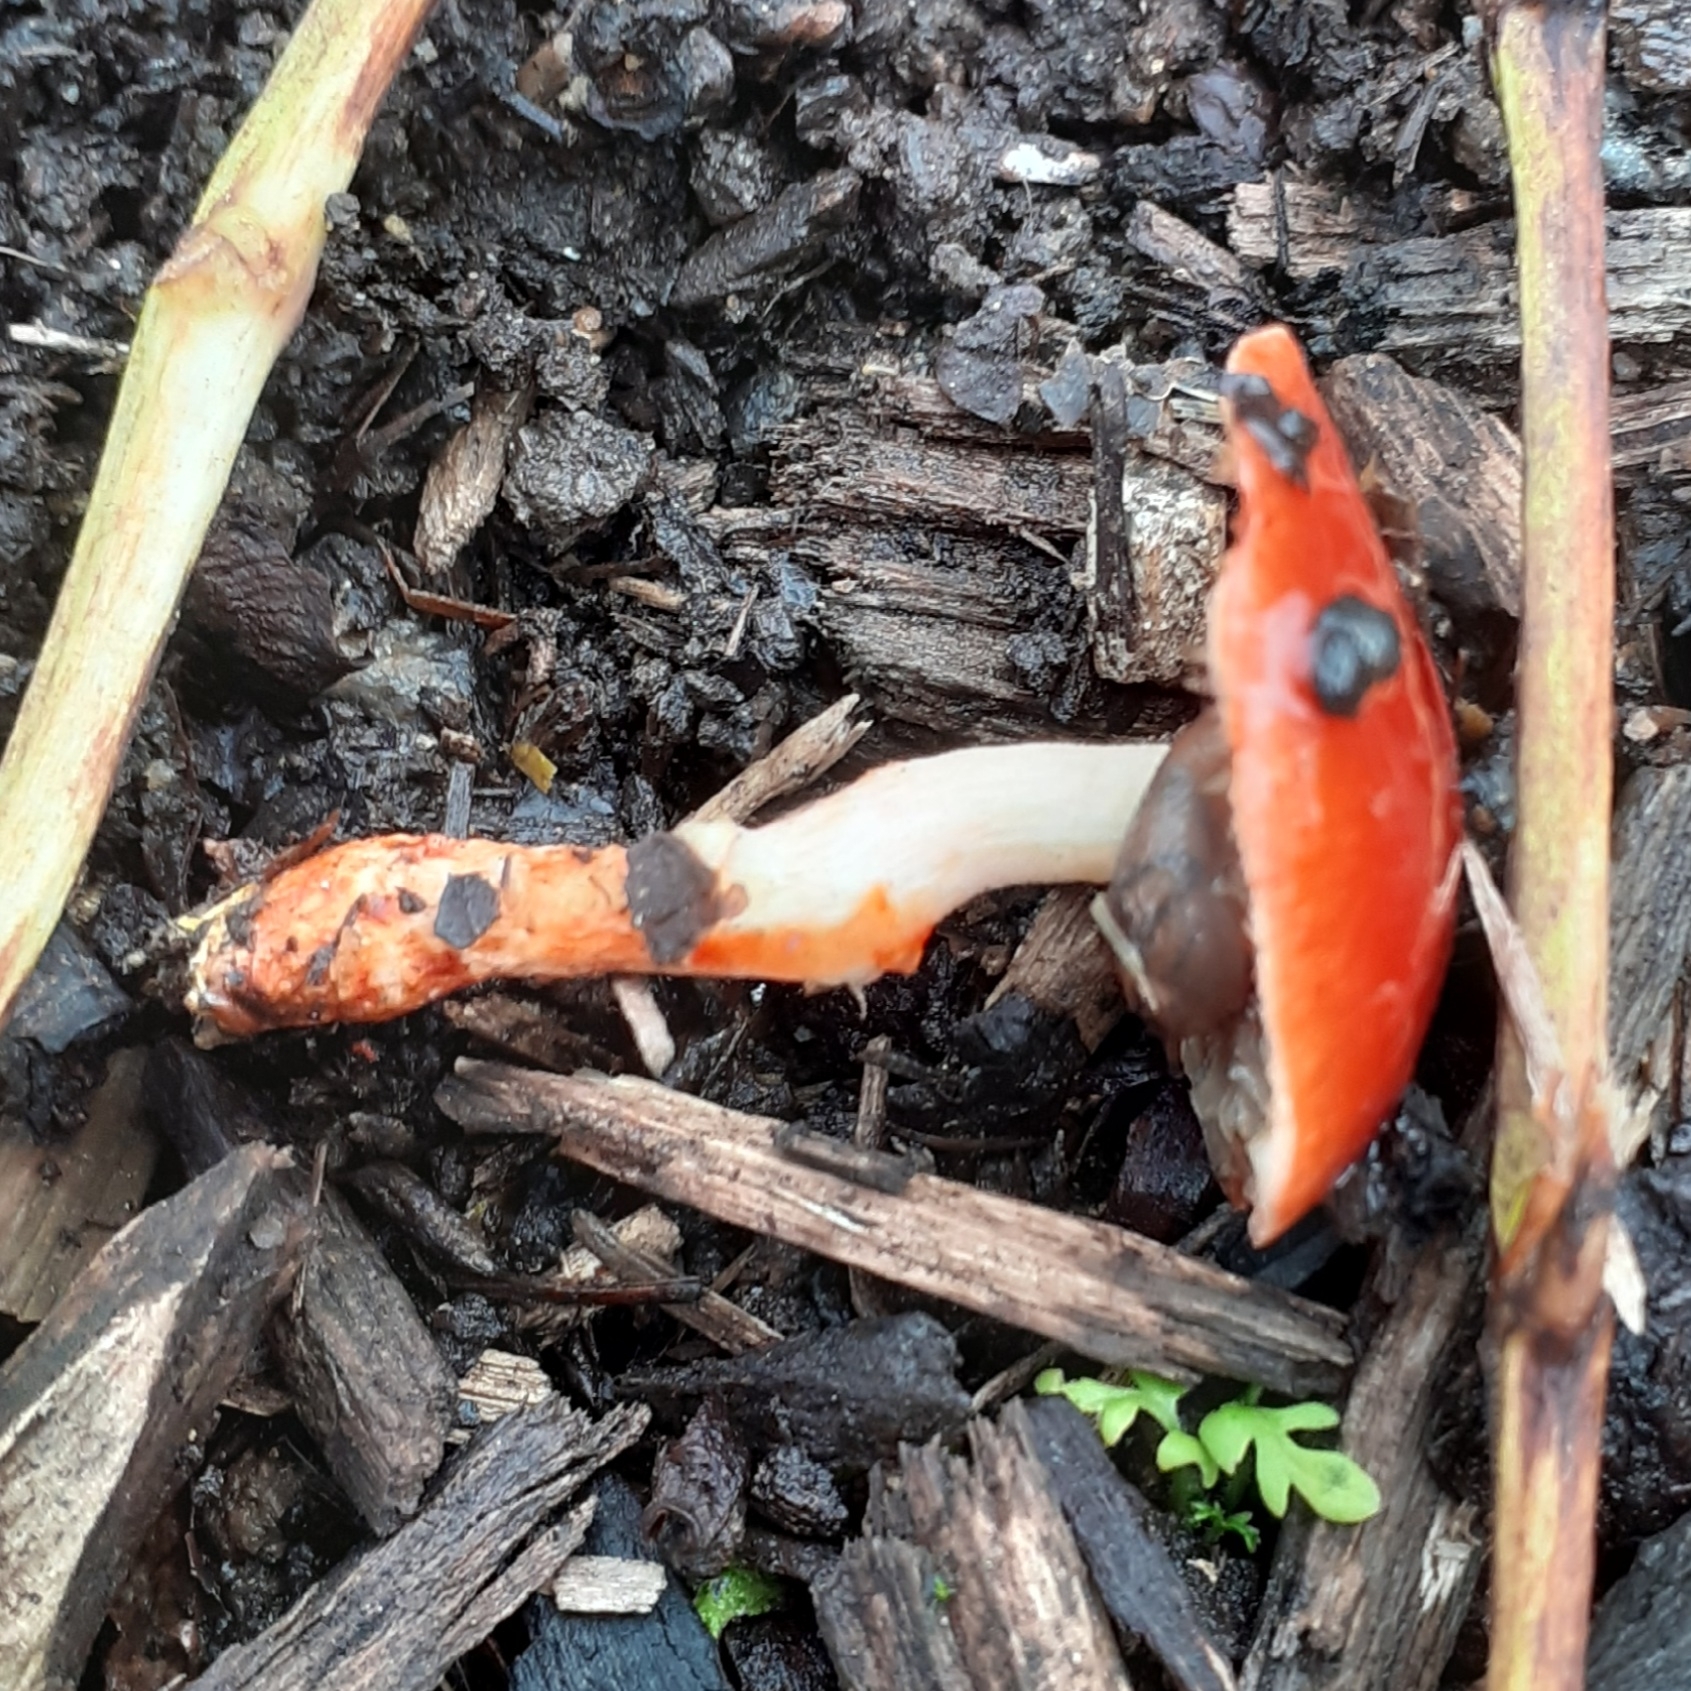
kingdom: Fungi
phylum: Basidiomycota
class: Agaricomycetes
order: Agaricales
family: Strophariaceae
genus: Leratiomyces
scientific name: Leratiomyces ceres
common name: Redlead roundhead
